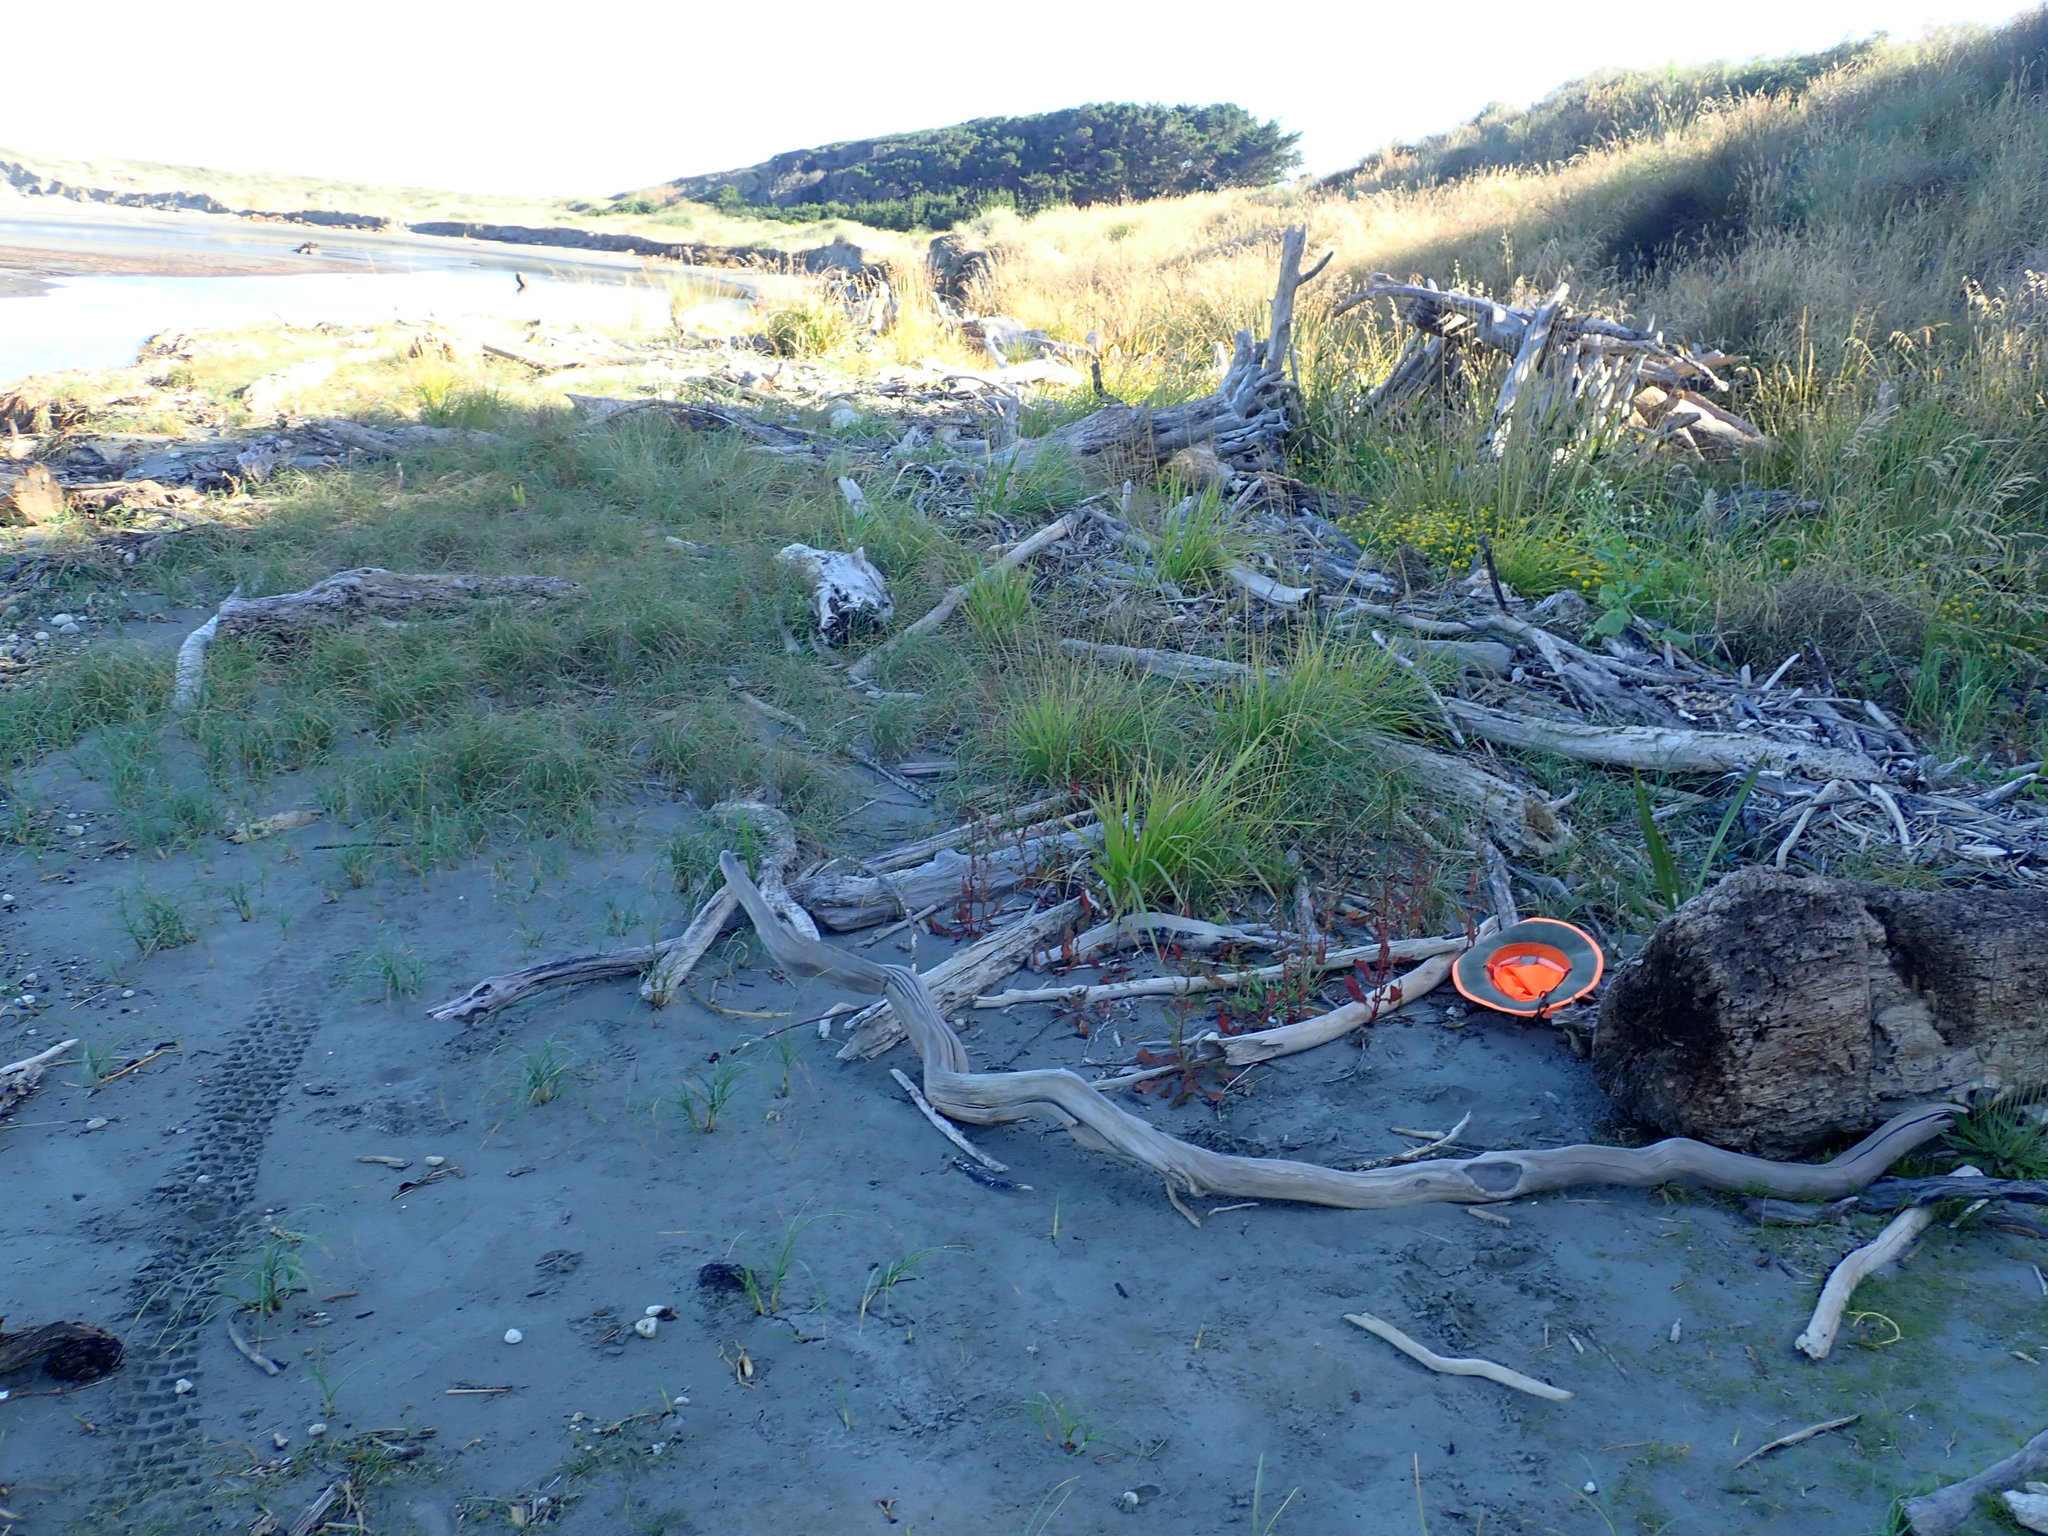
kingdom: Plantae
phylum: Tracheophyta
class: Magnoliopsida
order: Ranunculales
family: Ranunculaceae
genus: Ranunculus
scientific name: Ranunculus sceleratus
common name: Celery-leaved buttercup
